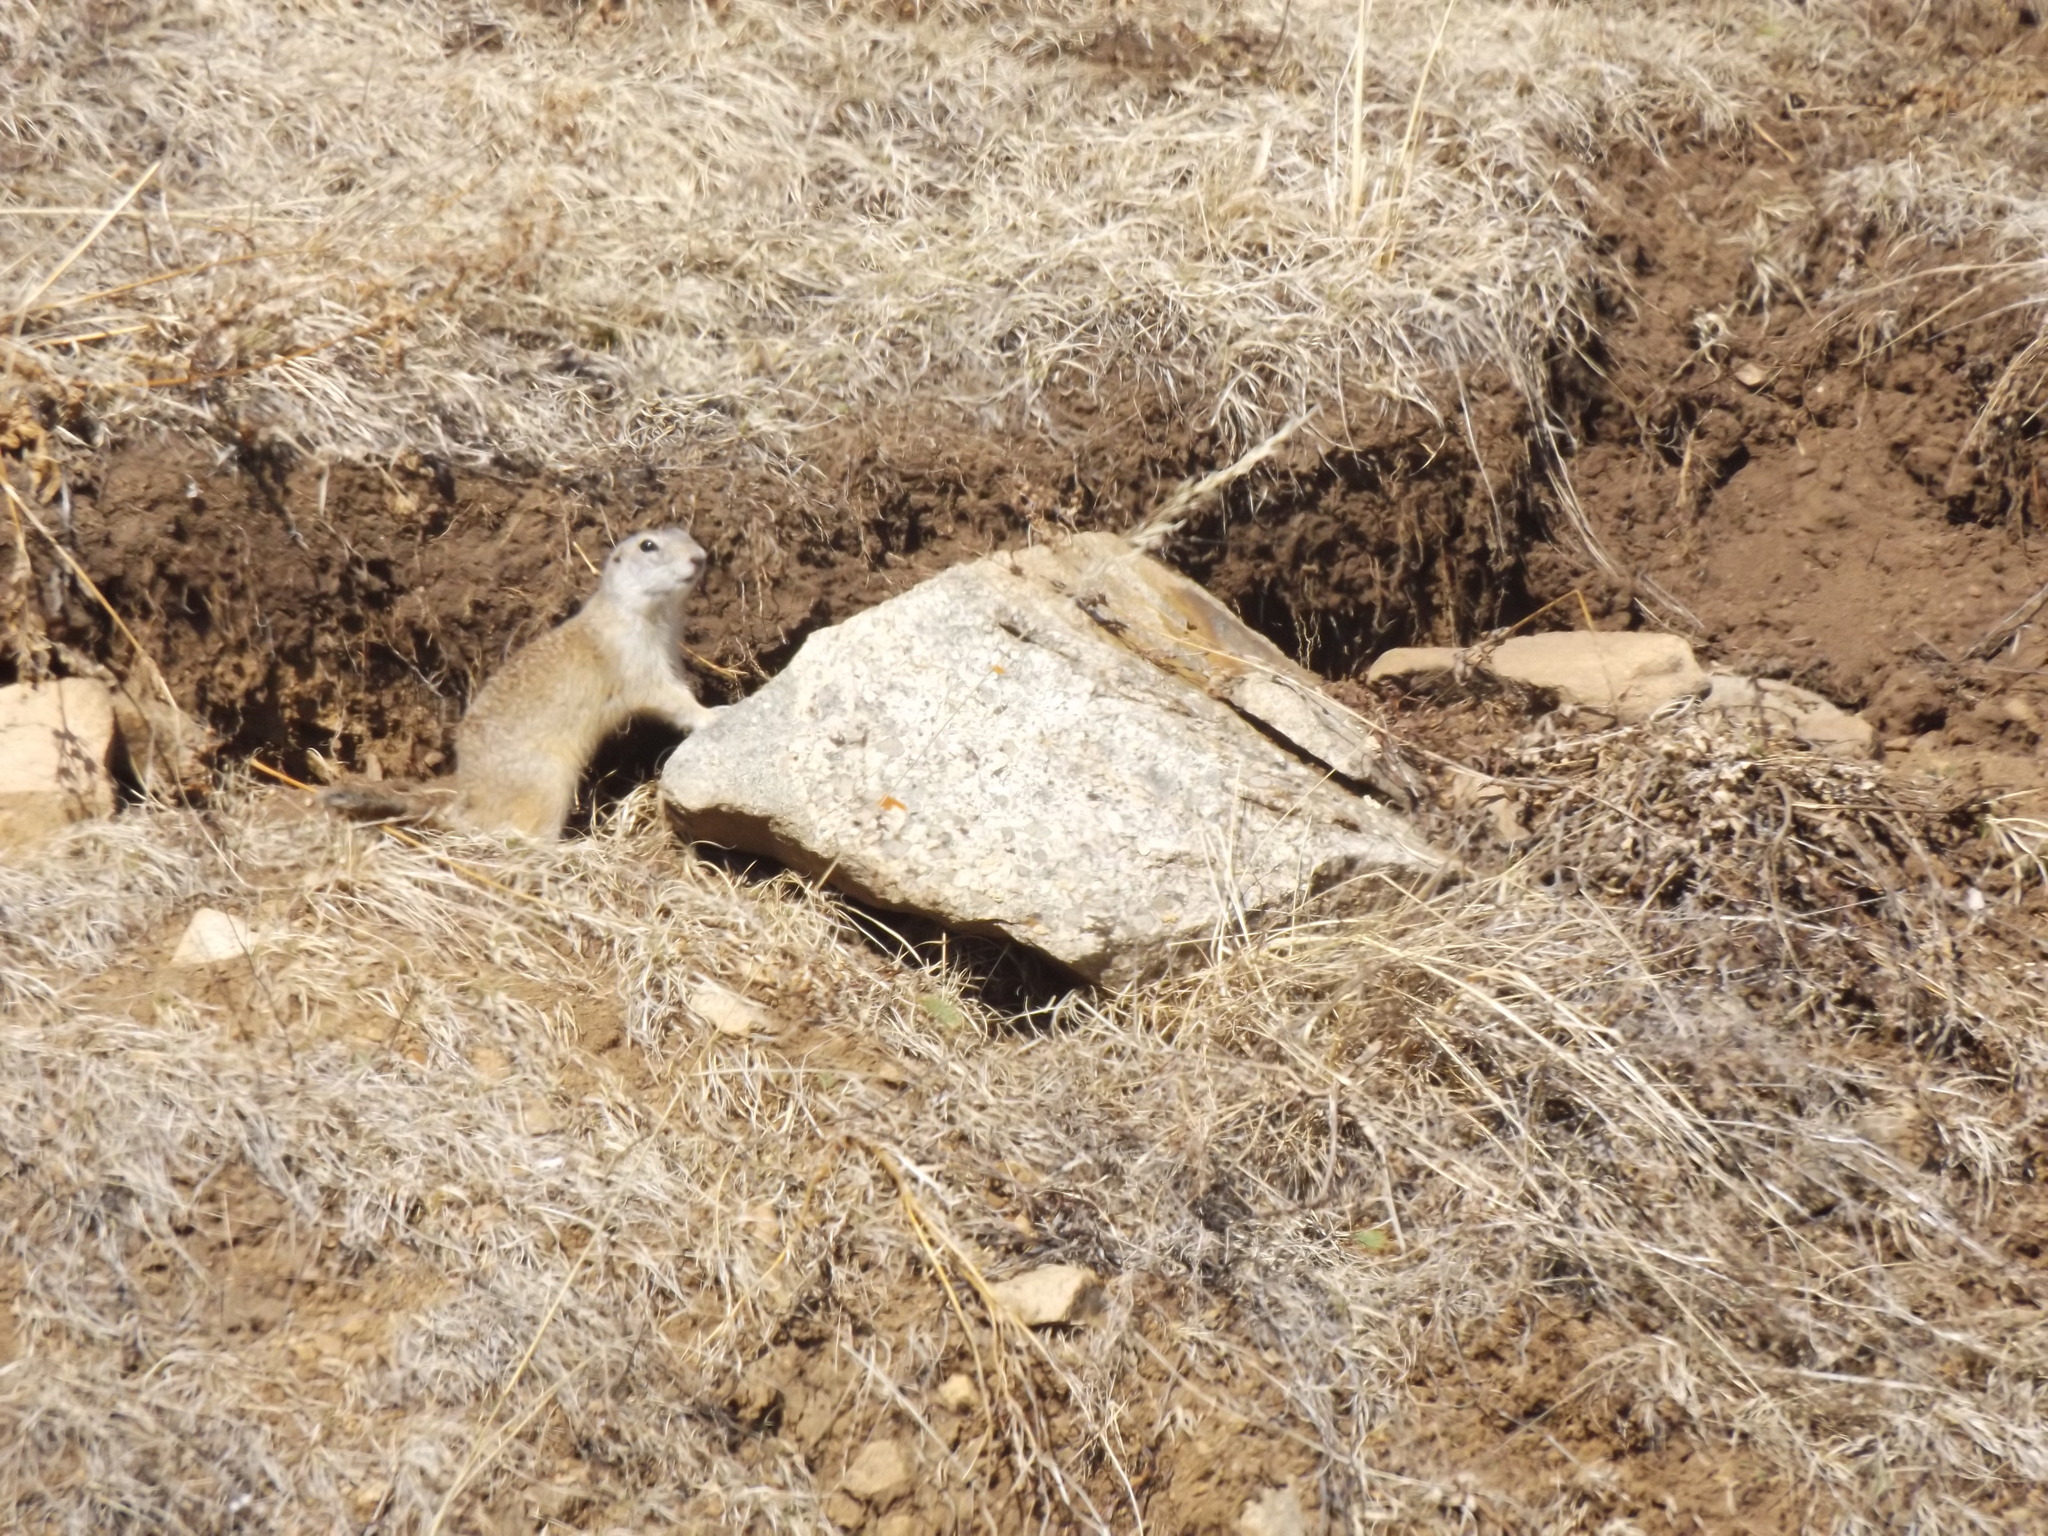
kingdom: Animalia
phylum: Chordata
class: Mammalia
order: Rodentia
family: Sciuridae
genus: Urocitellus
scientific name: Urocitellus undulatus
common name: Long-tailed ground squirrel
